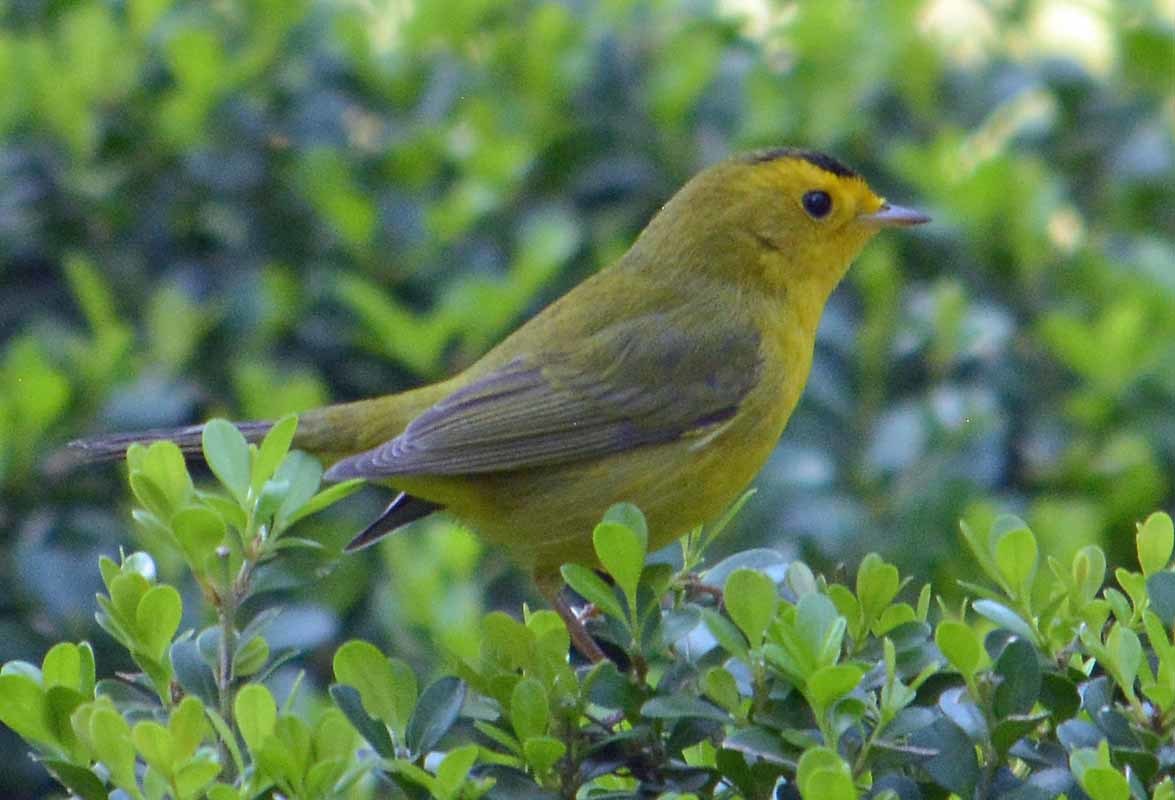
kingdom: Animalia
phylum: Chordata
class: Aves
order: Passeriformes
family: Parulidae
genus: Cardellina
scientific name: Cardellina pusilla
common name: Wilson's warbler
